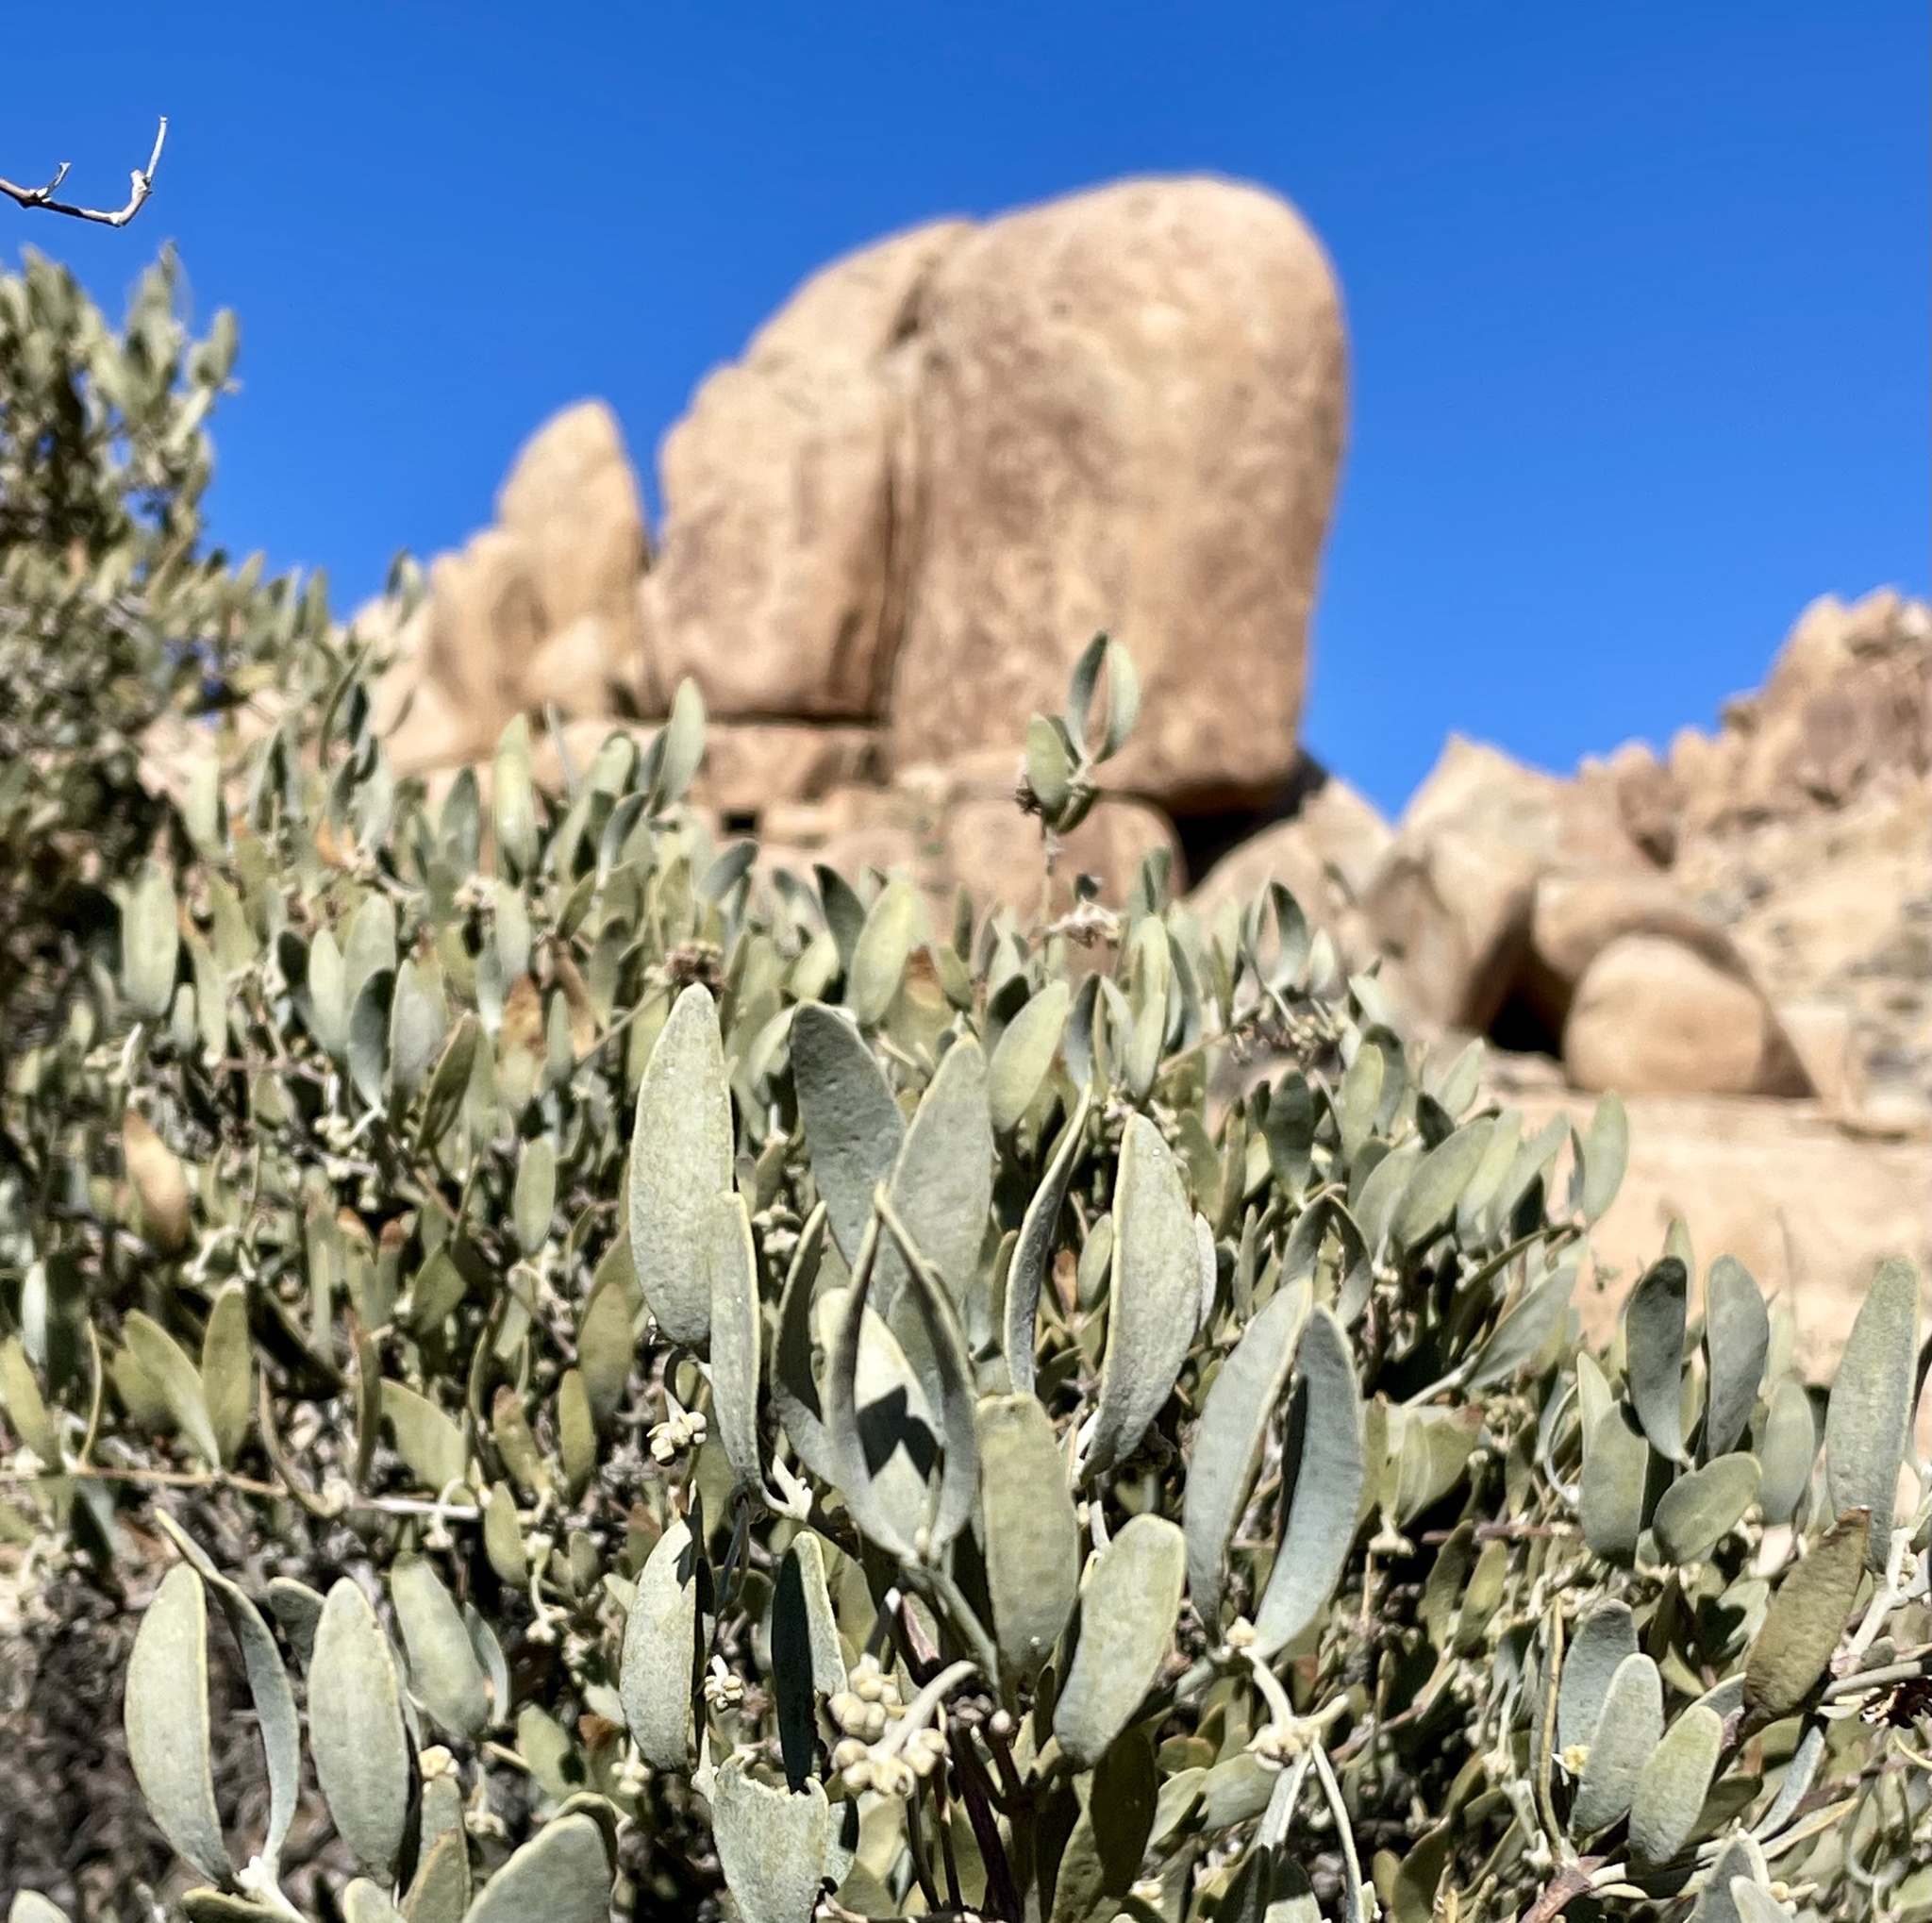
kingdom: Plantae
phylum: Tracheophyta
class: Magnoliopsida
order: Caryophyllales
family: Simmondsiaceae
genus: Simmondsia
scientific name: Simmondsia chinensis
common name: Jojoba
